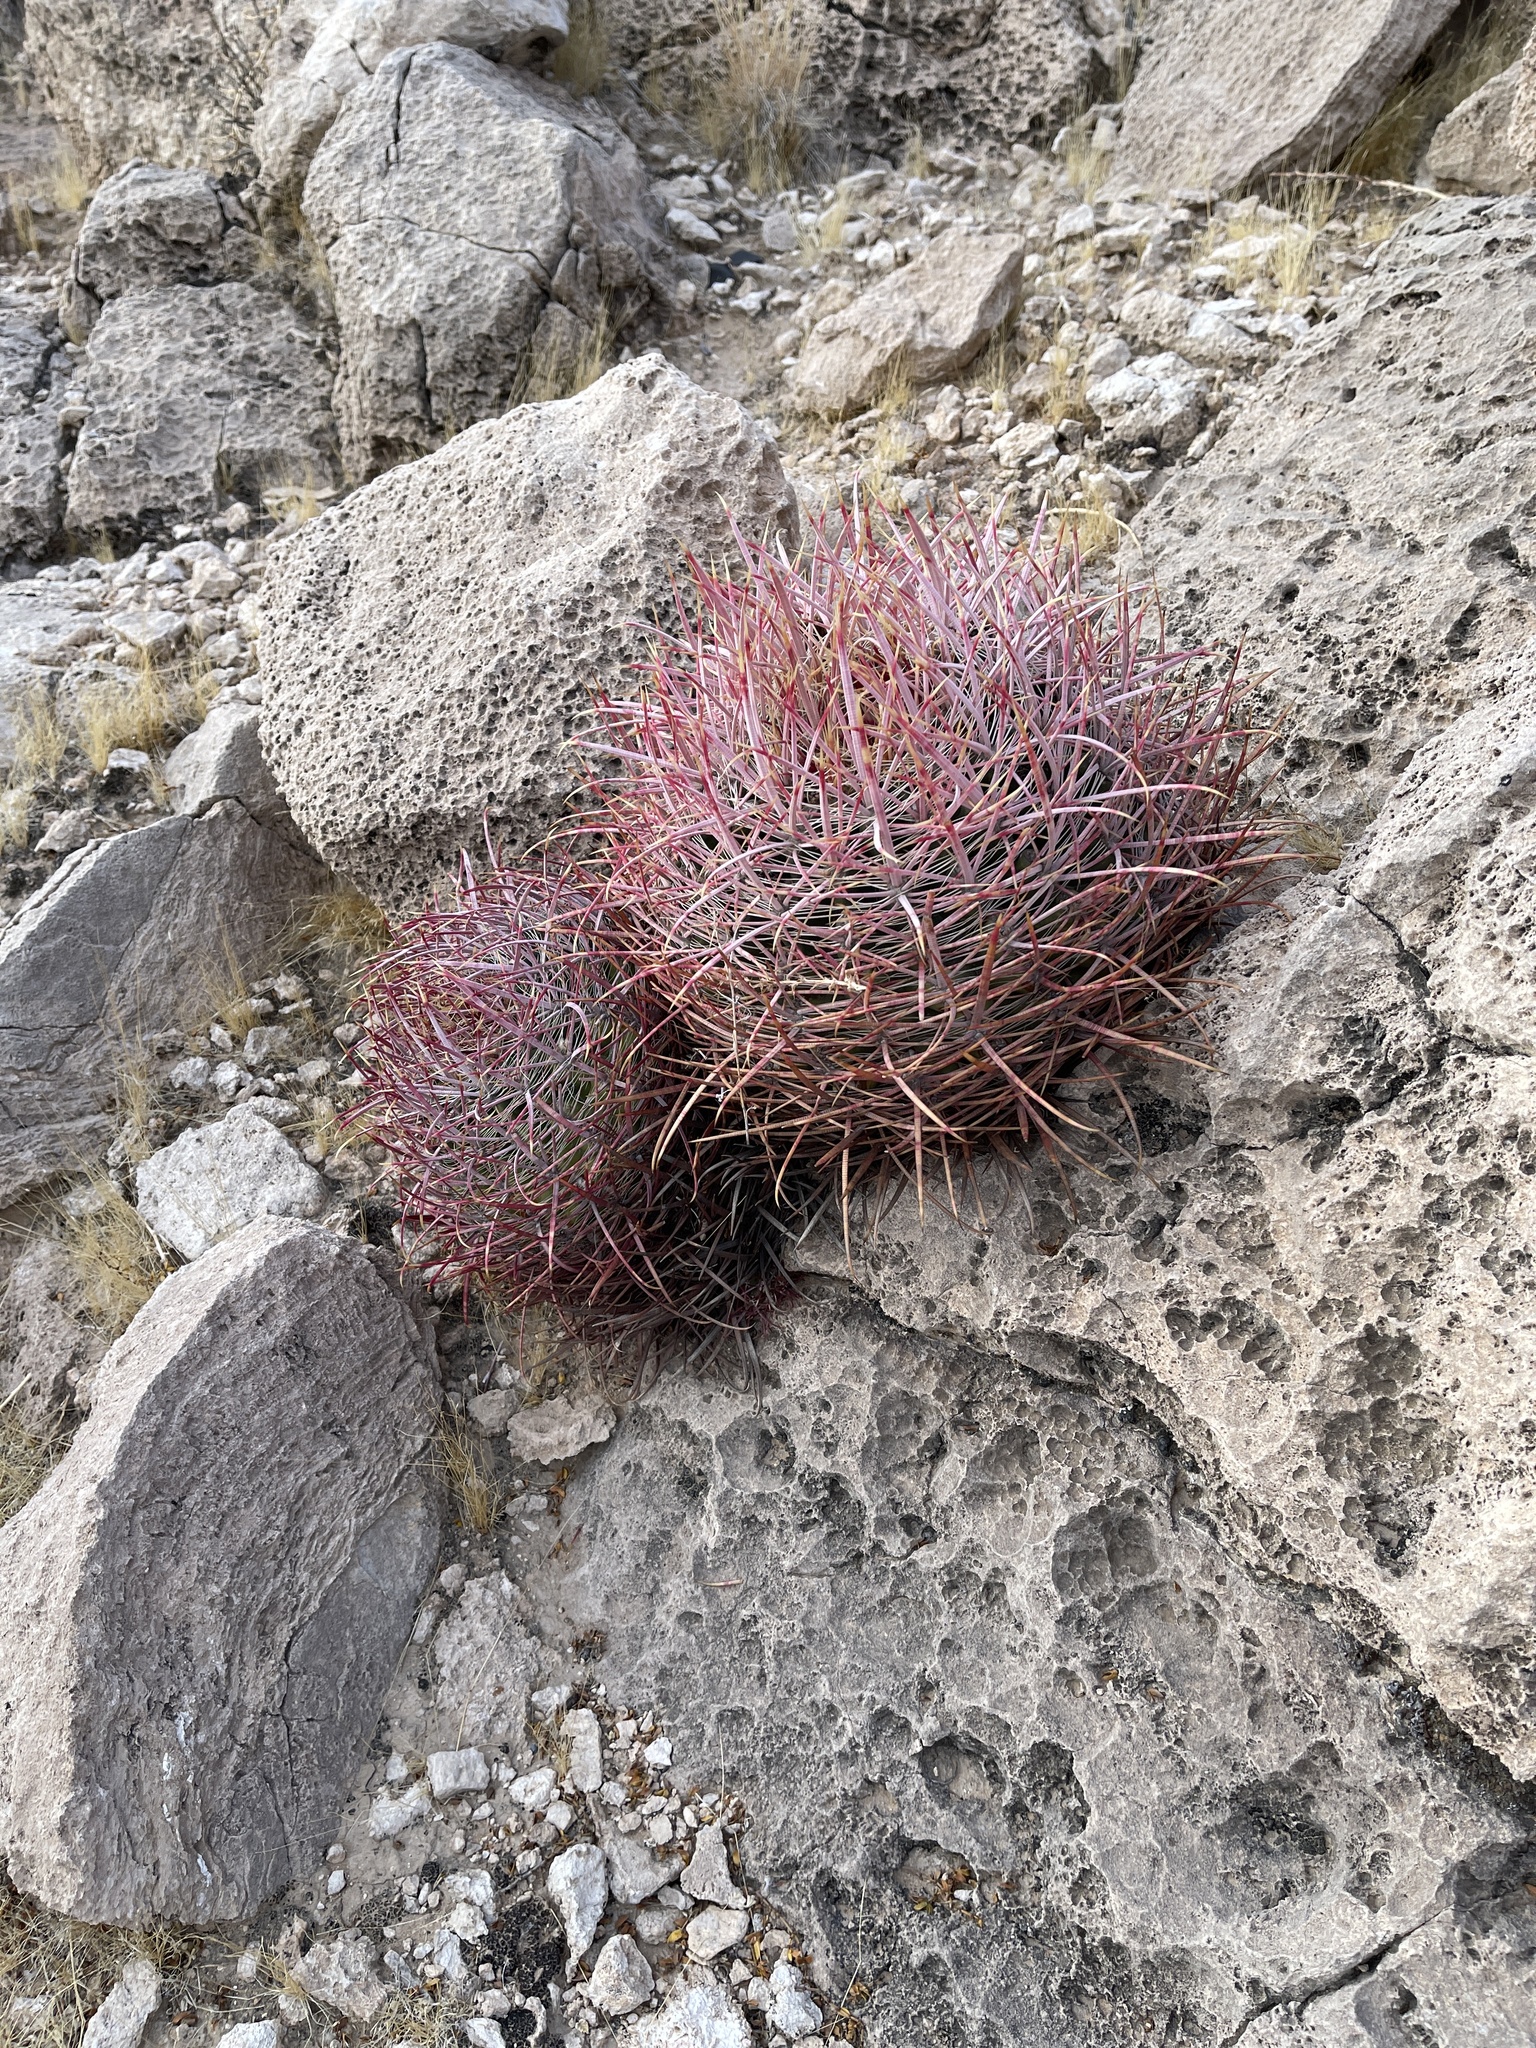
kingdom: Plantae
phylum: Tracheophyta
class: Magnoliopsida
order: Caryophyllales
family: Cactaceae
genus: Ferocactus
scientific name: Ferocactus cylindraceus
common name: California barrel cactus
